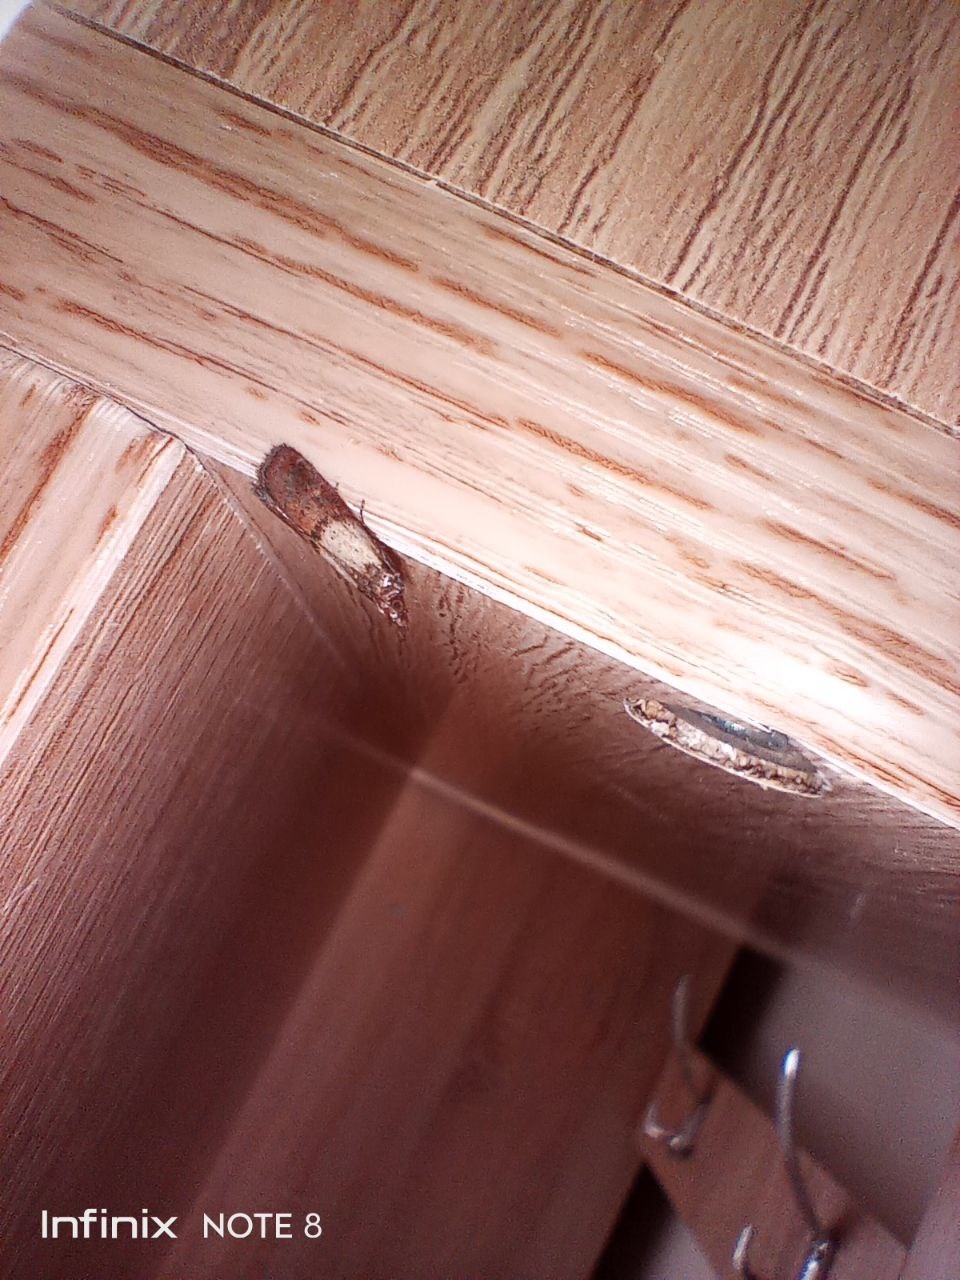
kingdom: Animalia
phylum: Arthropoda
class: Insecta
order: Lepidoptera
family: Pyralidae
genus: Plodia
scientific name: Plodia interpunctella
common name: Indian meal moth
